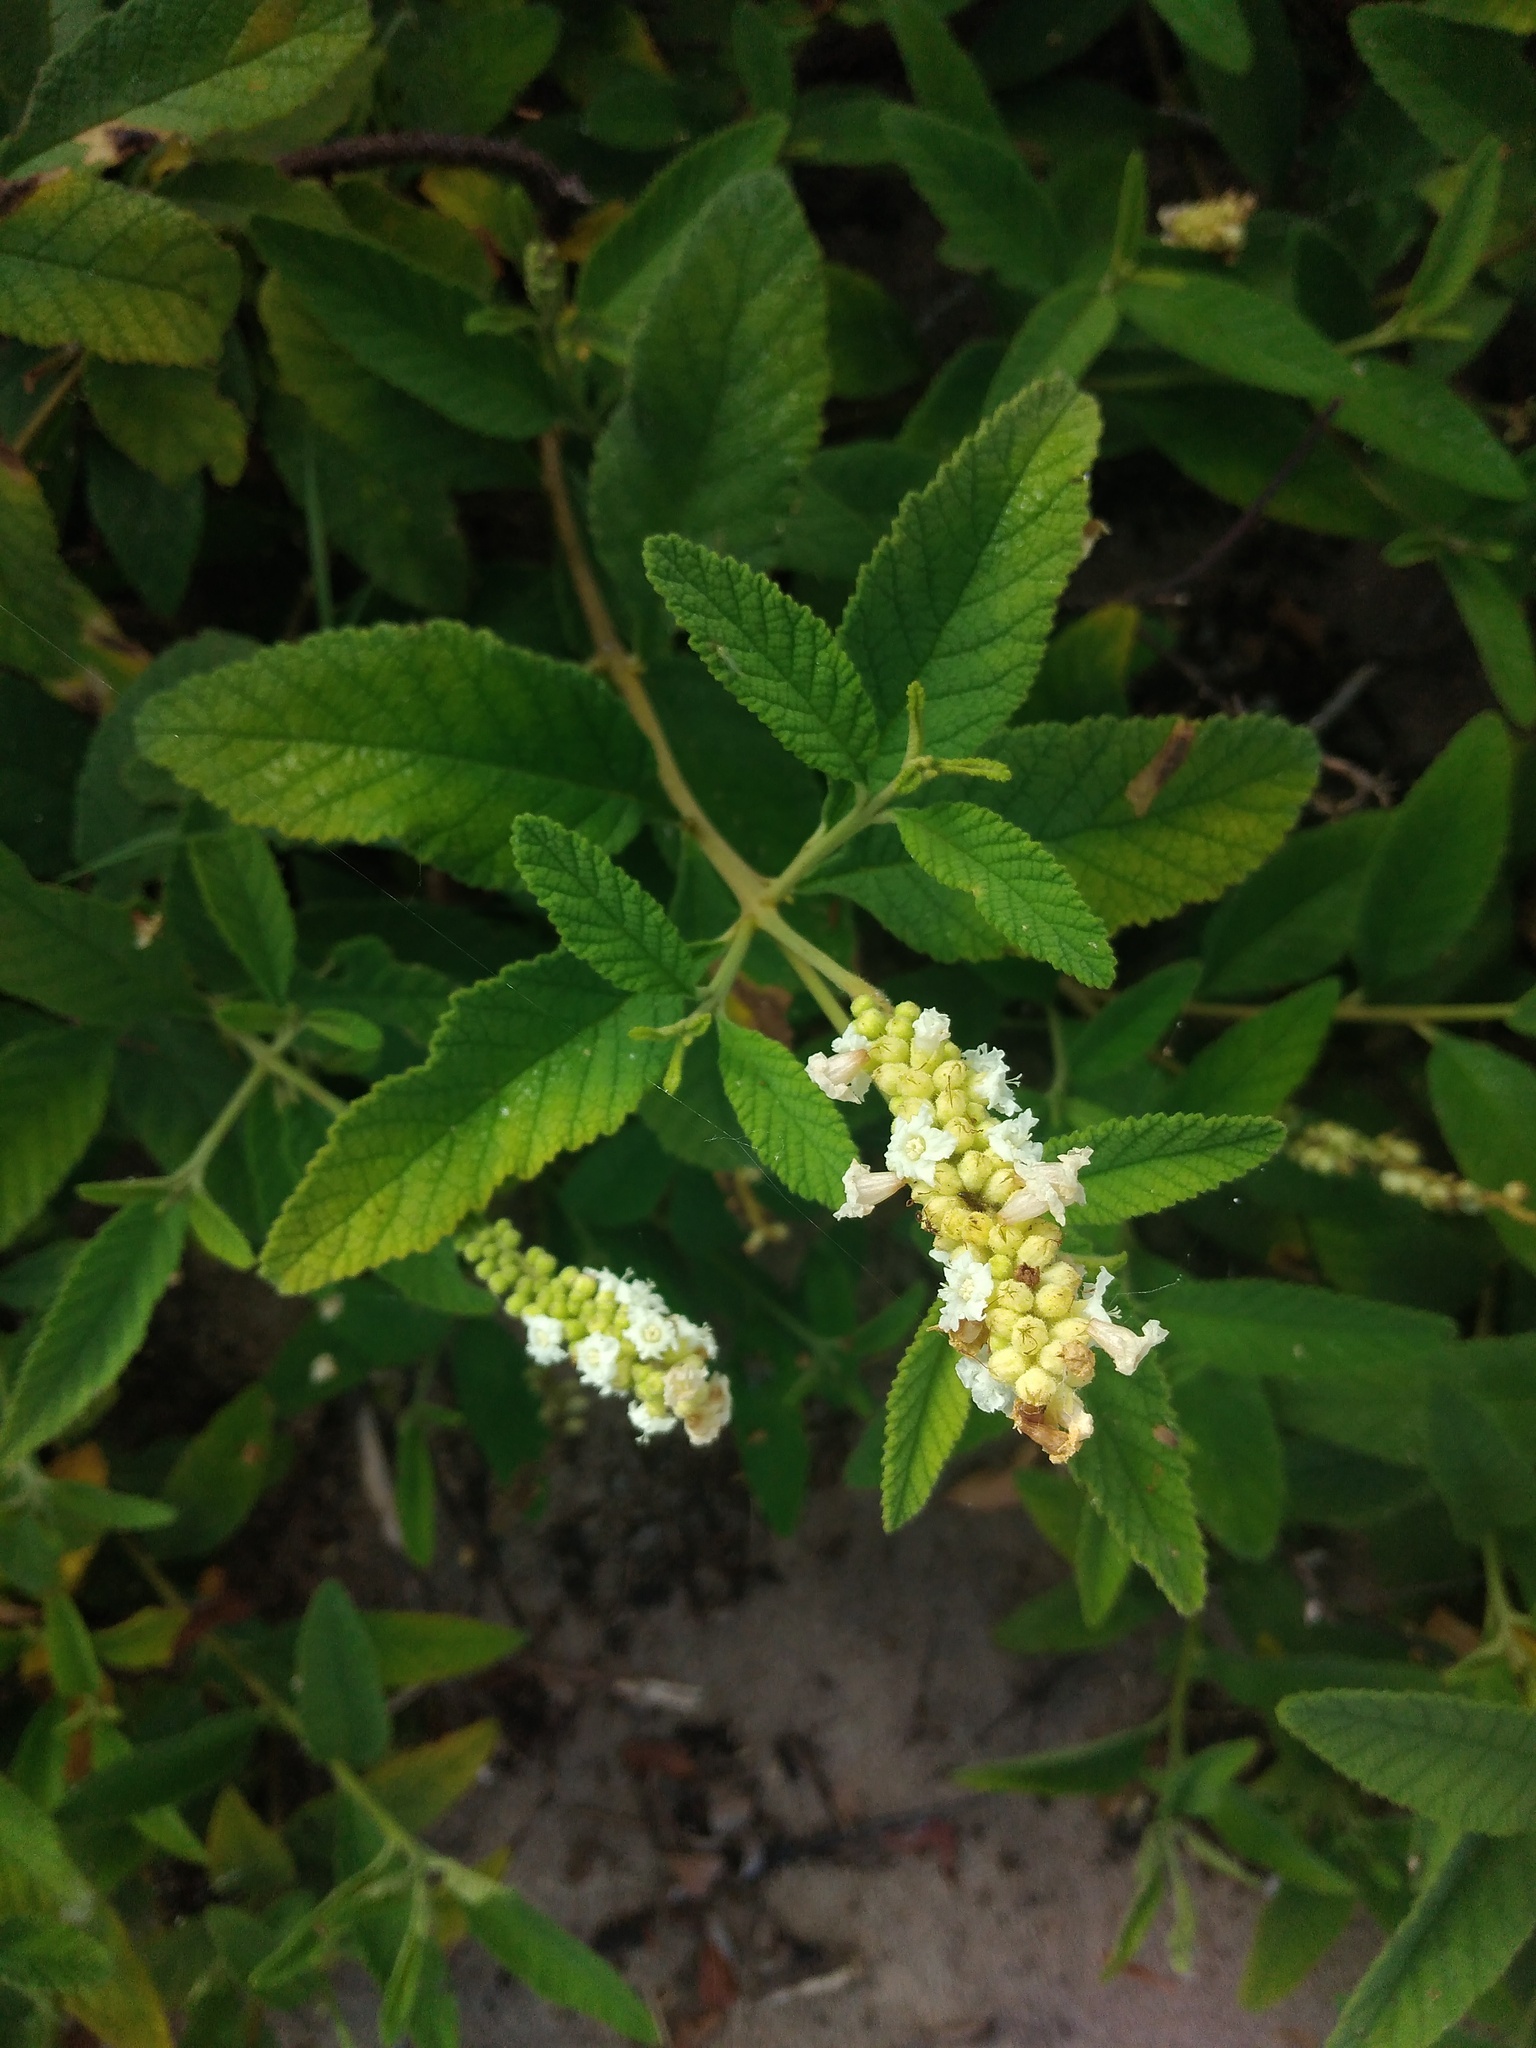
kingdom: Plantae
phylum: Tracheophyta
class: Magnoliopsida
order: Boraginales
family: Cordiaceae
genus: Varronia
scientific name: Varronia curassavica
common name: Black sage
